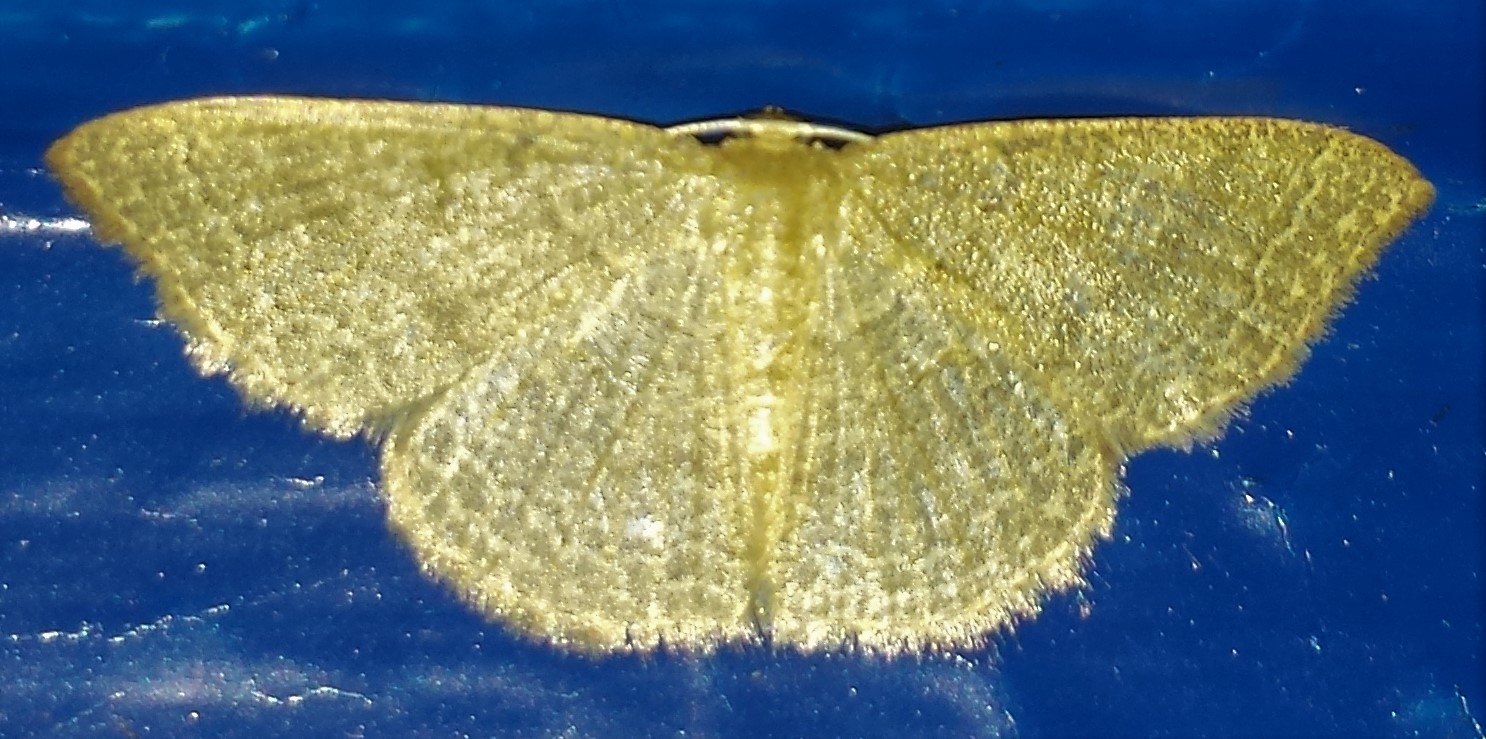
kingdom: Animalia
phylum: Arthropoda
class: Insecta
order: Lepidoptera
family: Geometridae
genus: Pleuroprucha
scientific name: Pleuroprucha insulsaria
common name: Common tan wave
